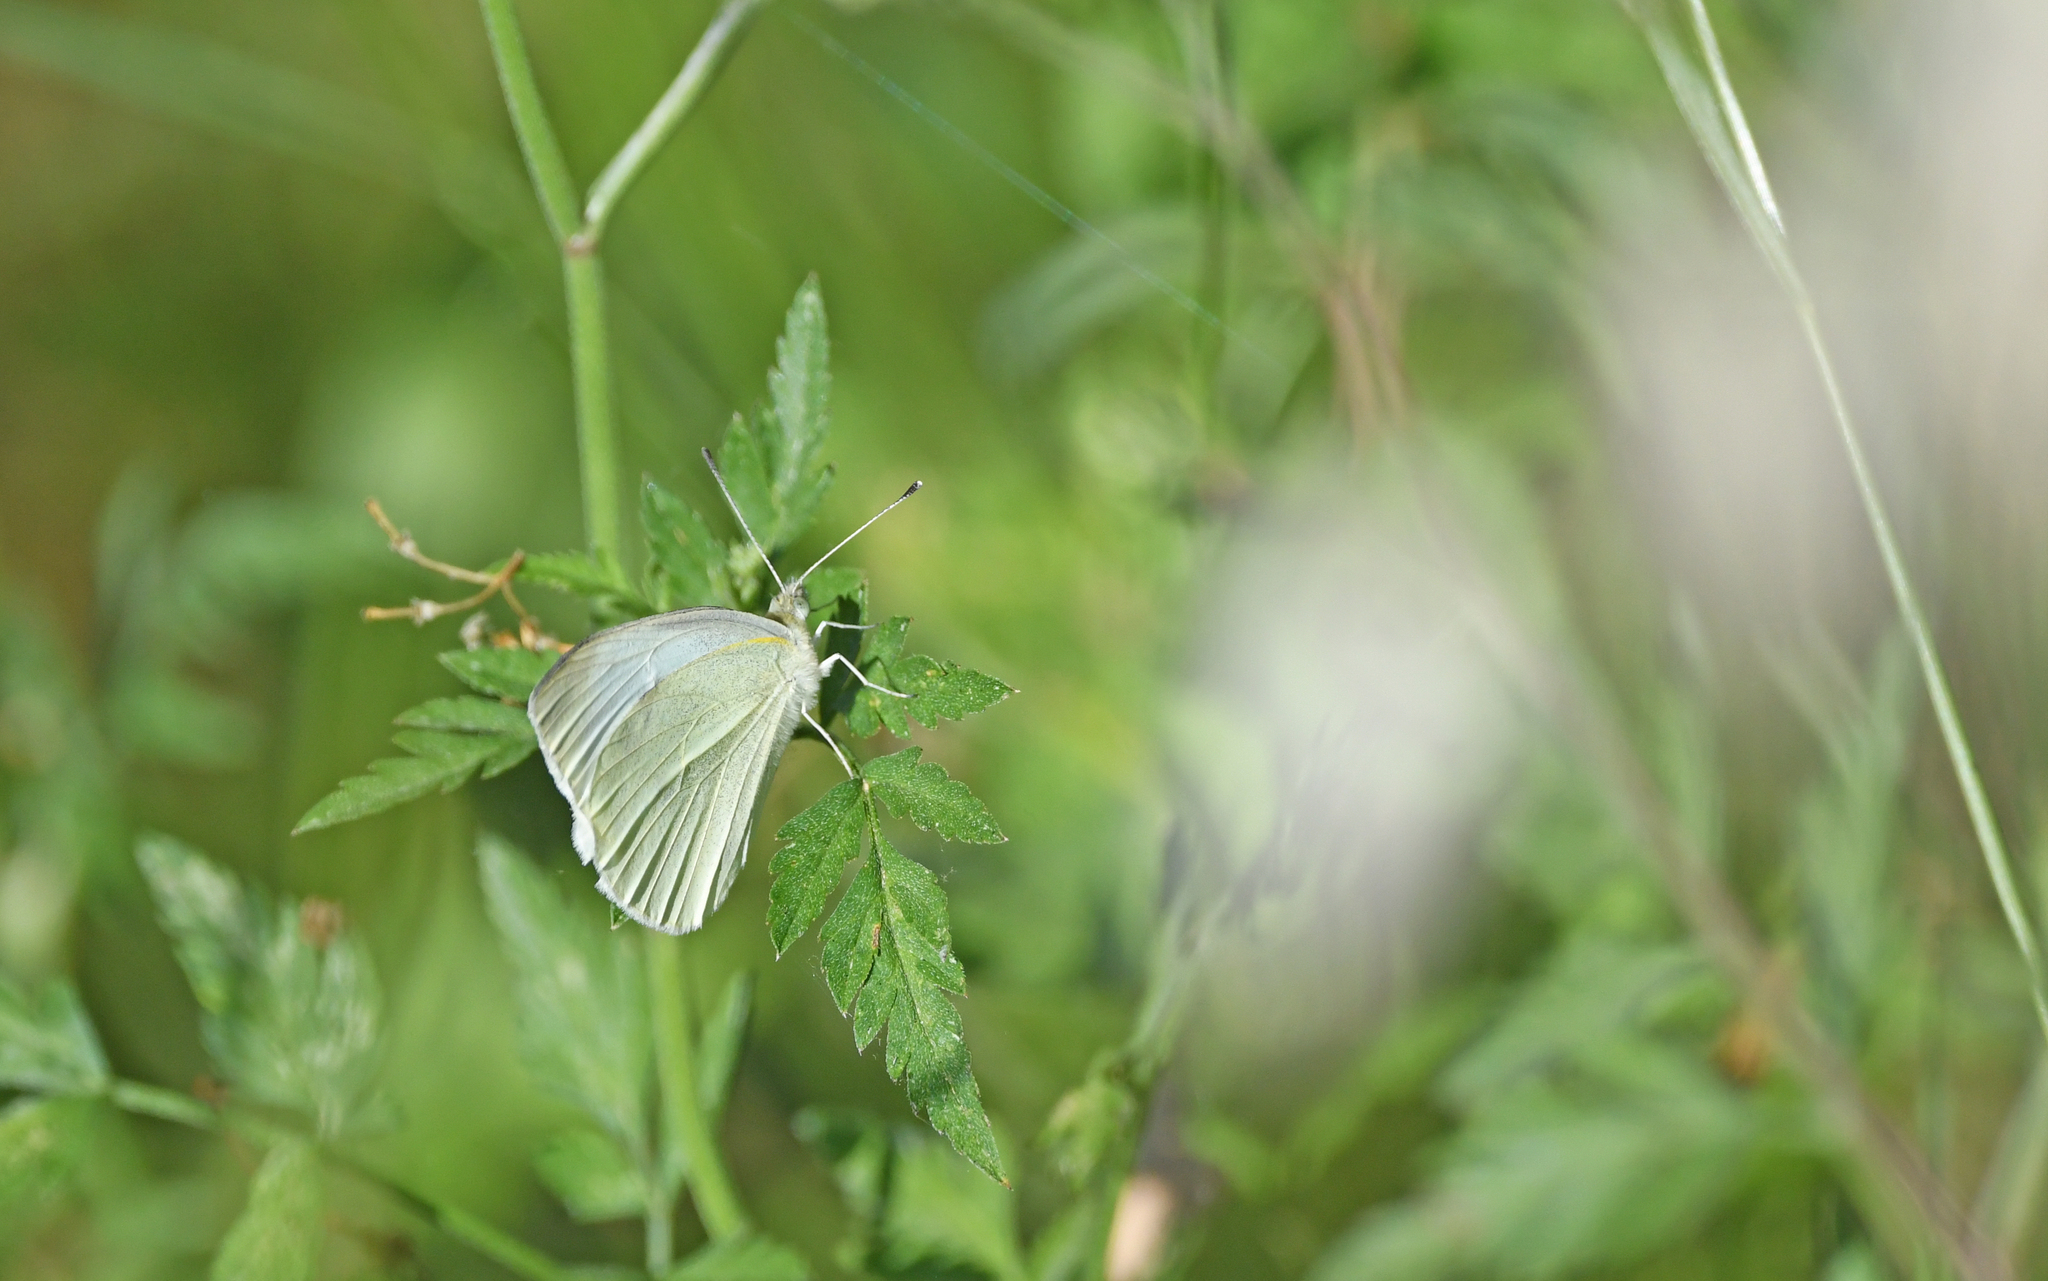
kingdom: Animalia
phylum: Arthropoda
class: Insecta
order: Lepidoptera
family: Pieridae
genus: Pieris
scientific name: Pieris rapae
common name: Small white
